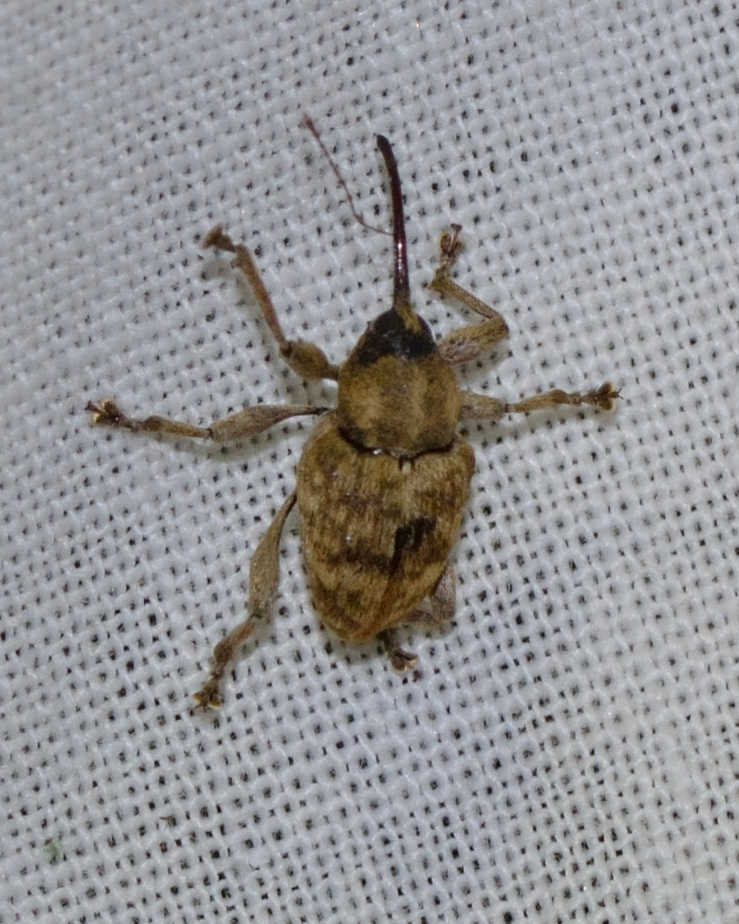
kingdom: Animalia
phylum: Arthropoda
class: Insecta
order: Coleoptera
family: Curculionidae
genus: Curculio
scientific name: Curculio venosus
